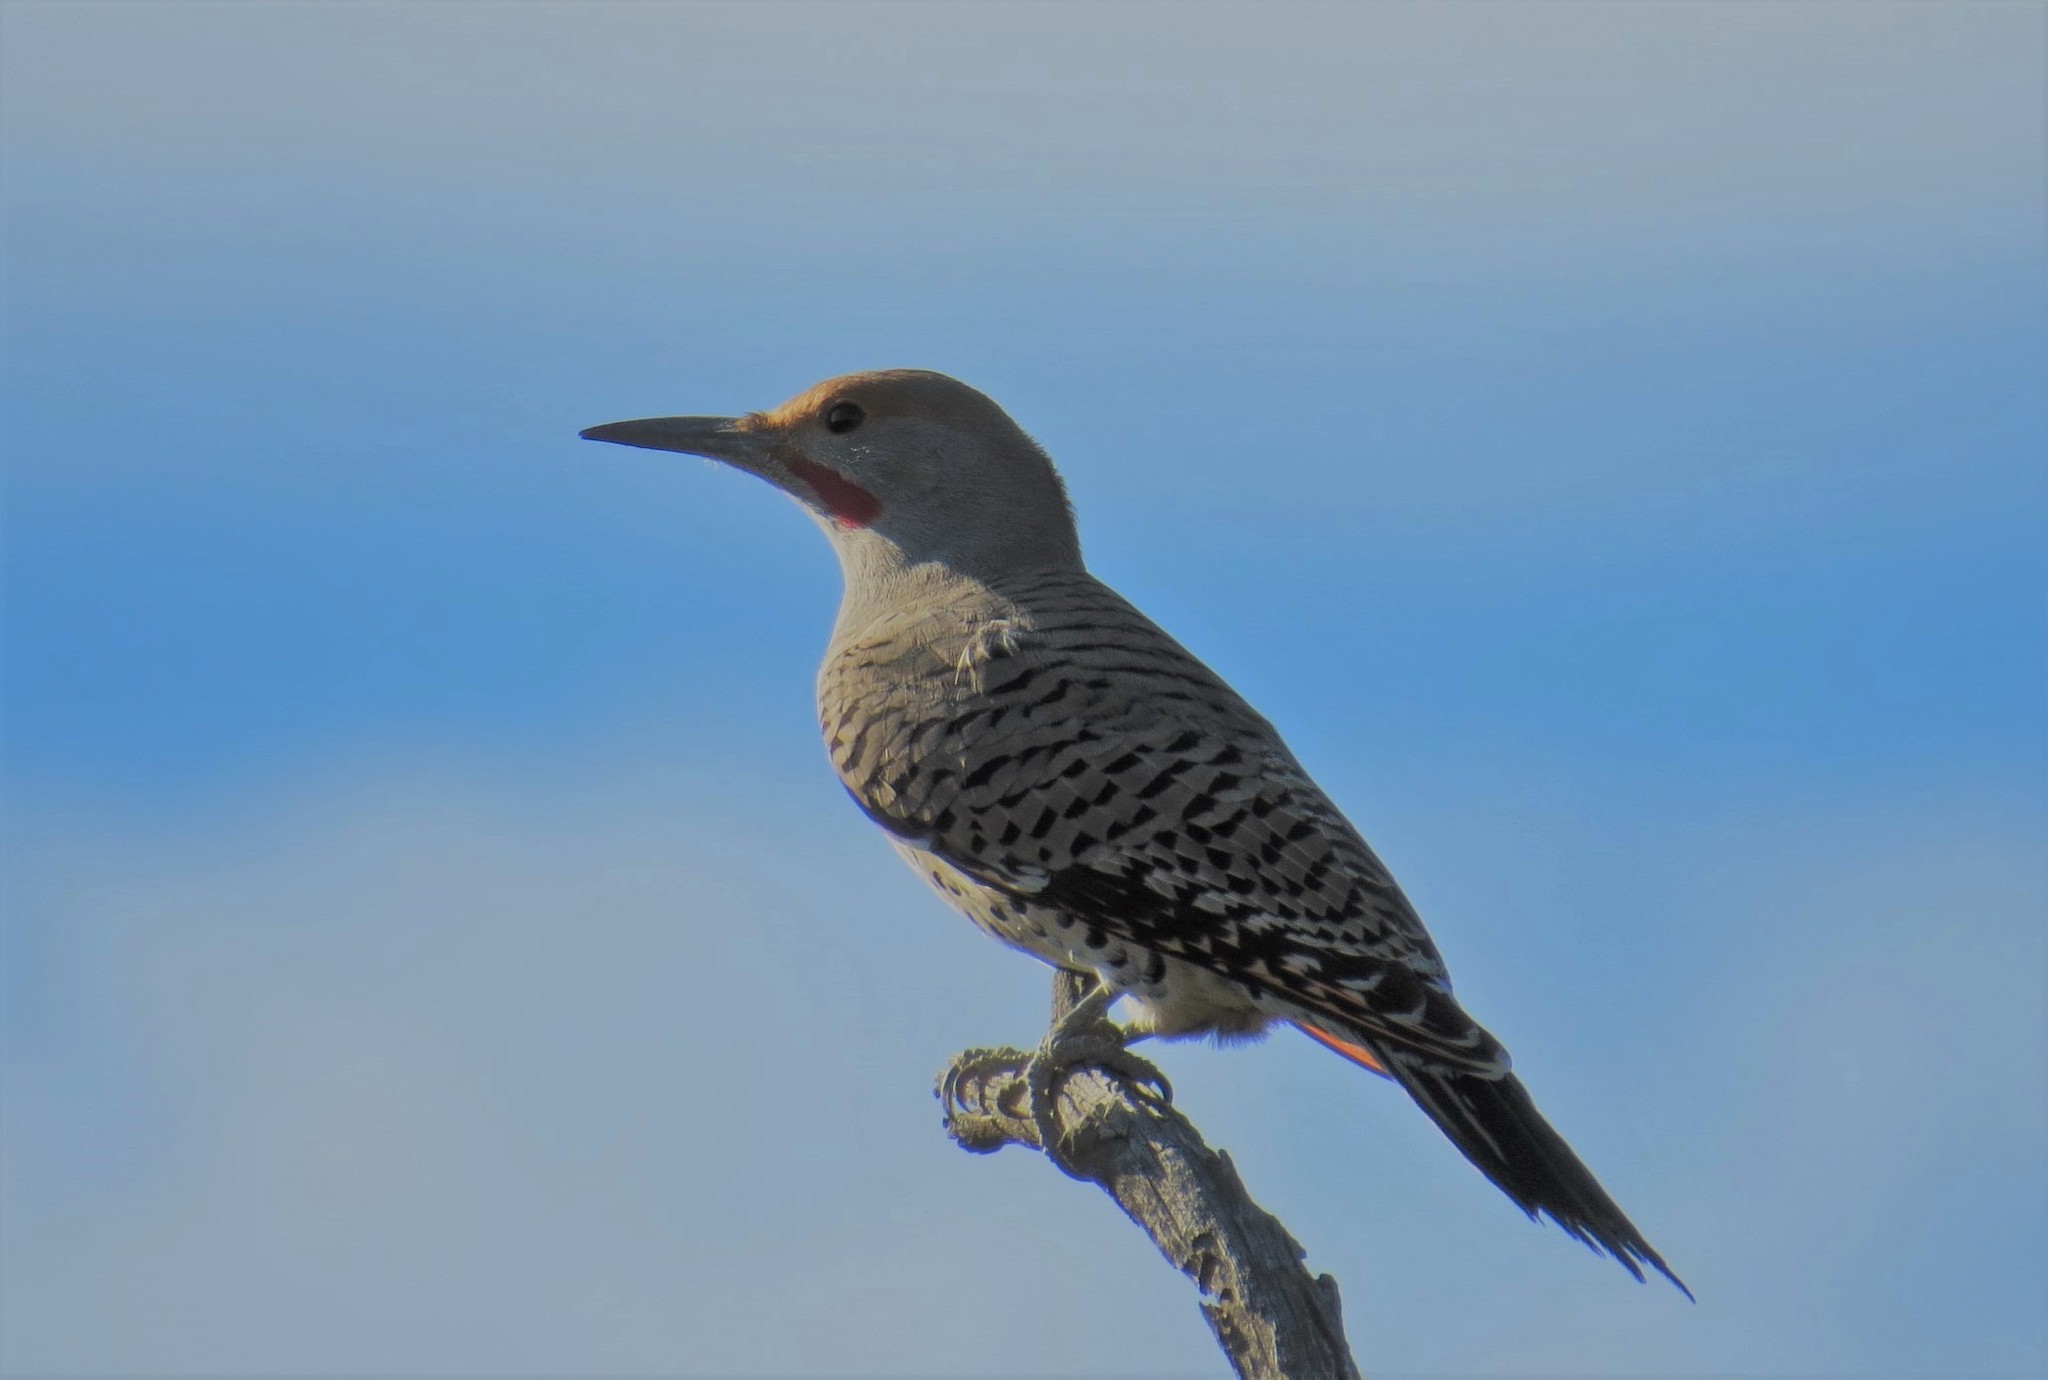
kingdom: Animalia
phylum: Chordata
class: Aves
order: Piciformes
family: Picidae
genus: Colaptes
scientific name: Colaptes auratus
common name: Northern flicker
